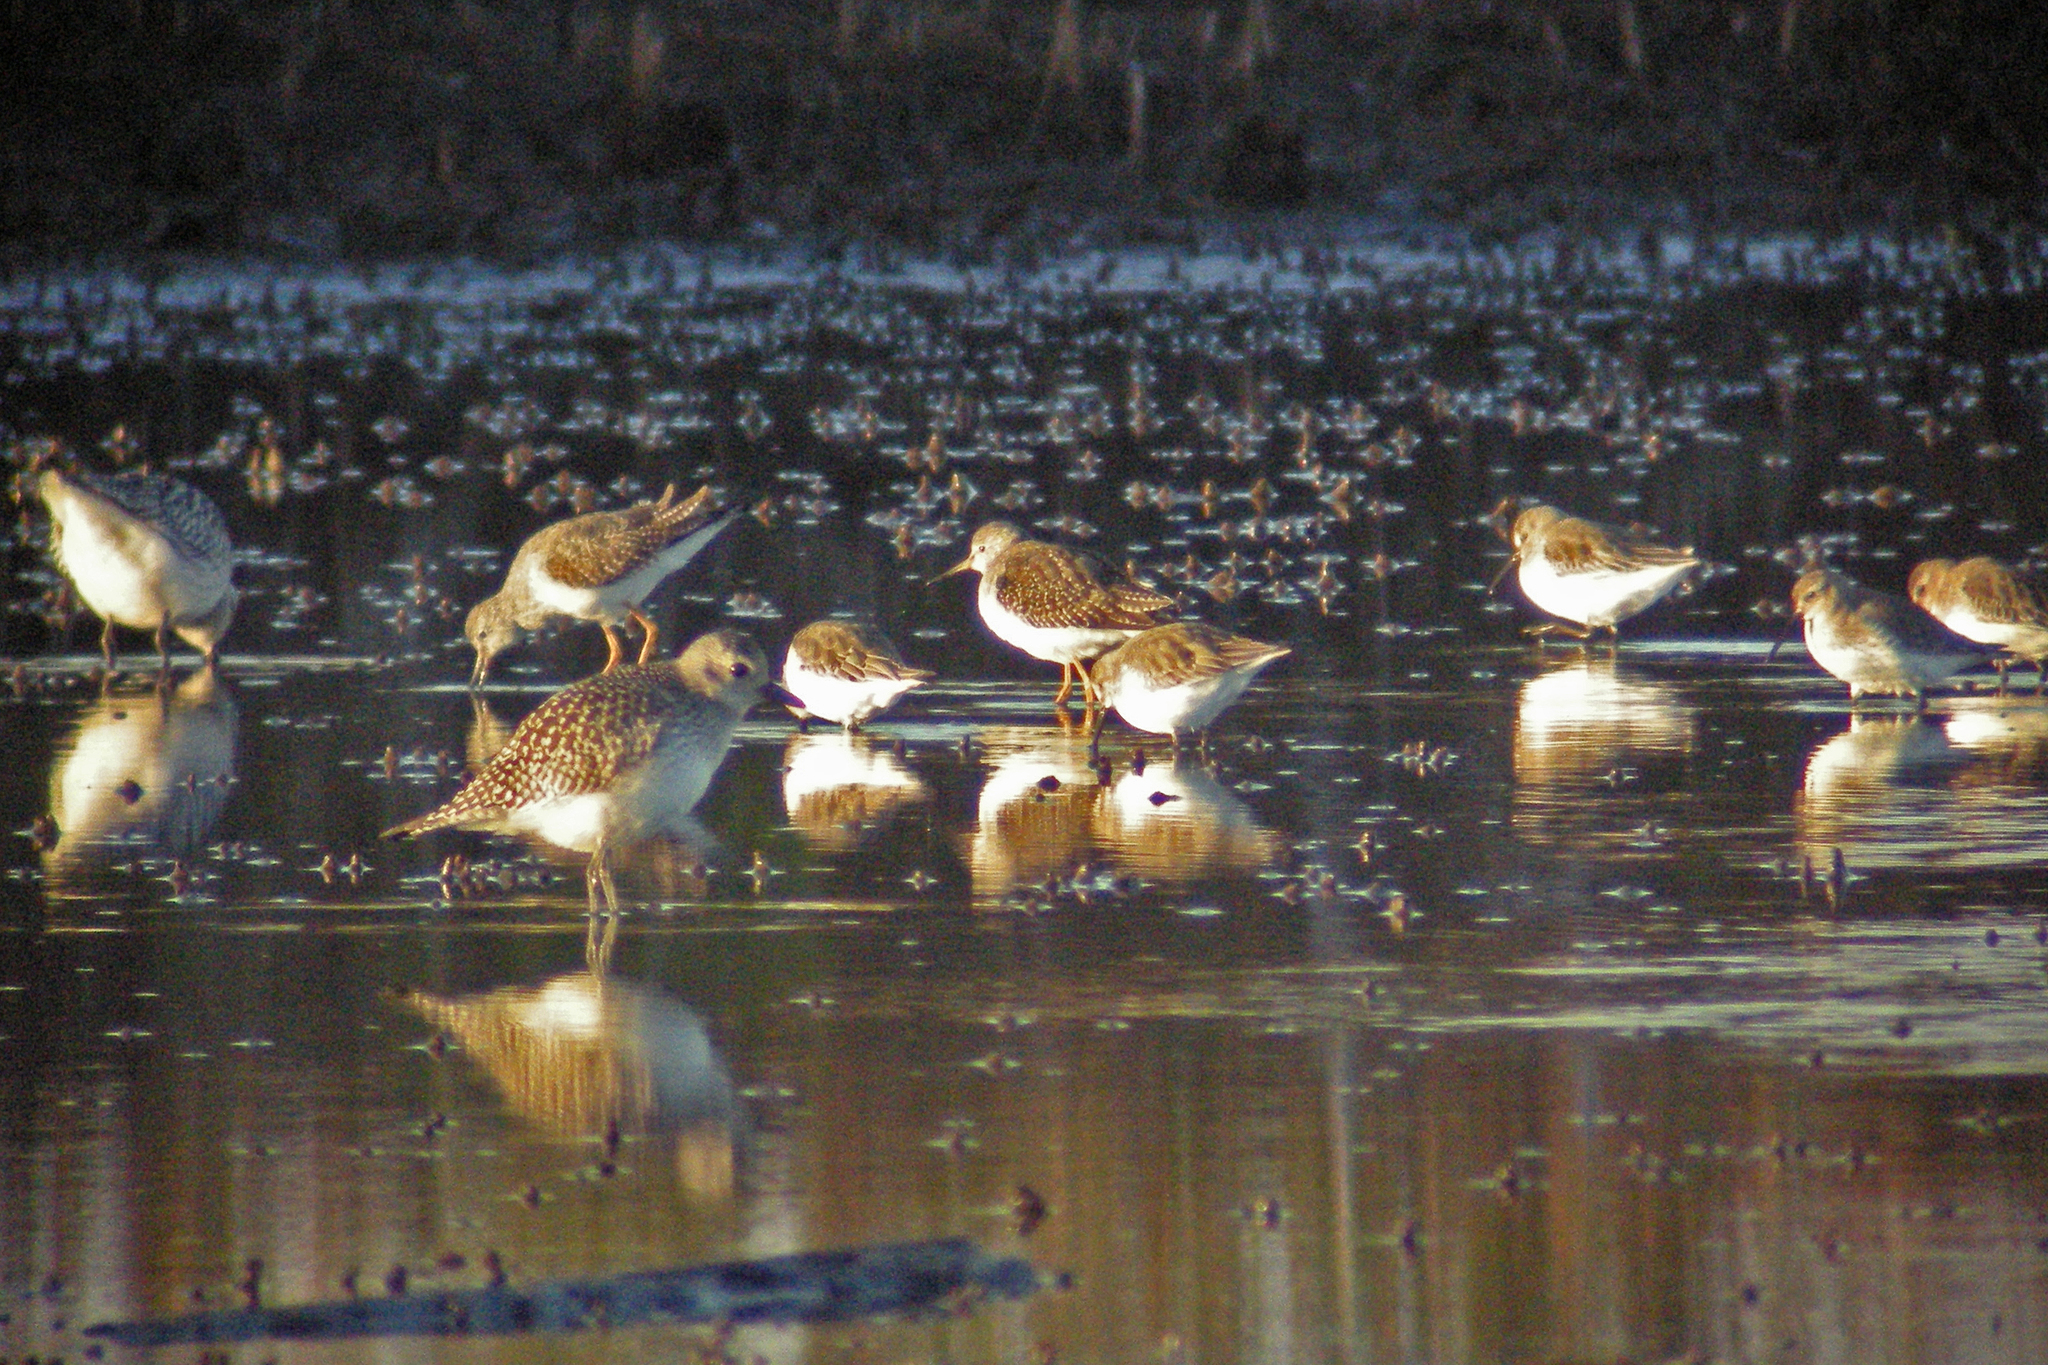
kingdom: Animalia
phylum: Chordata
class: Aves
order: Charadriiformes
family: Charadriidae
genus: Pluvialis
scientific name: Pluvialis squatarola
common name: Grey plover
